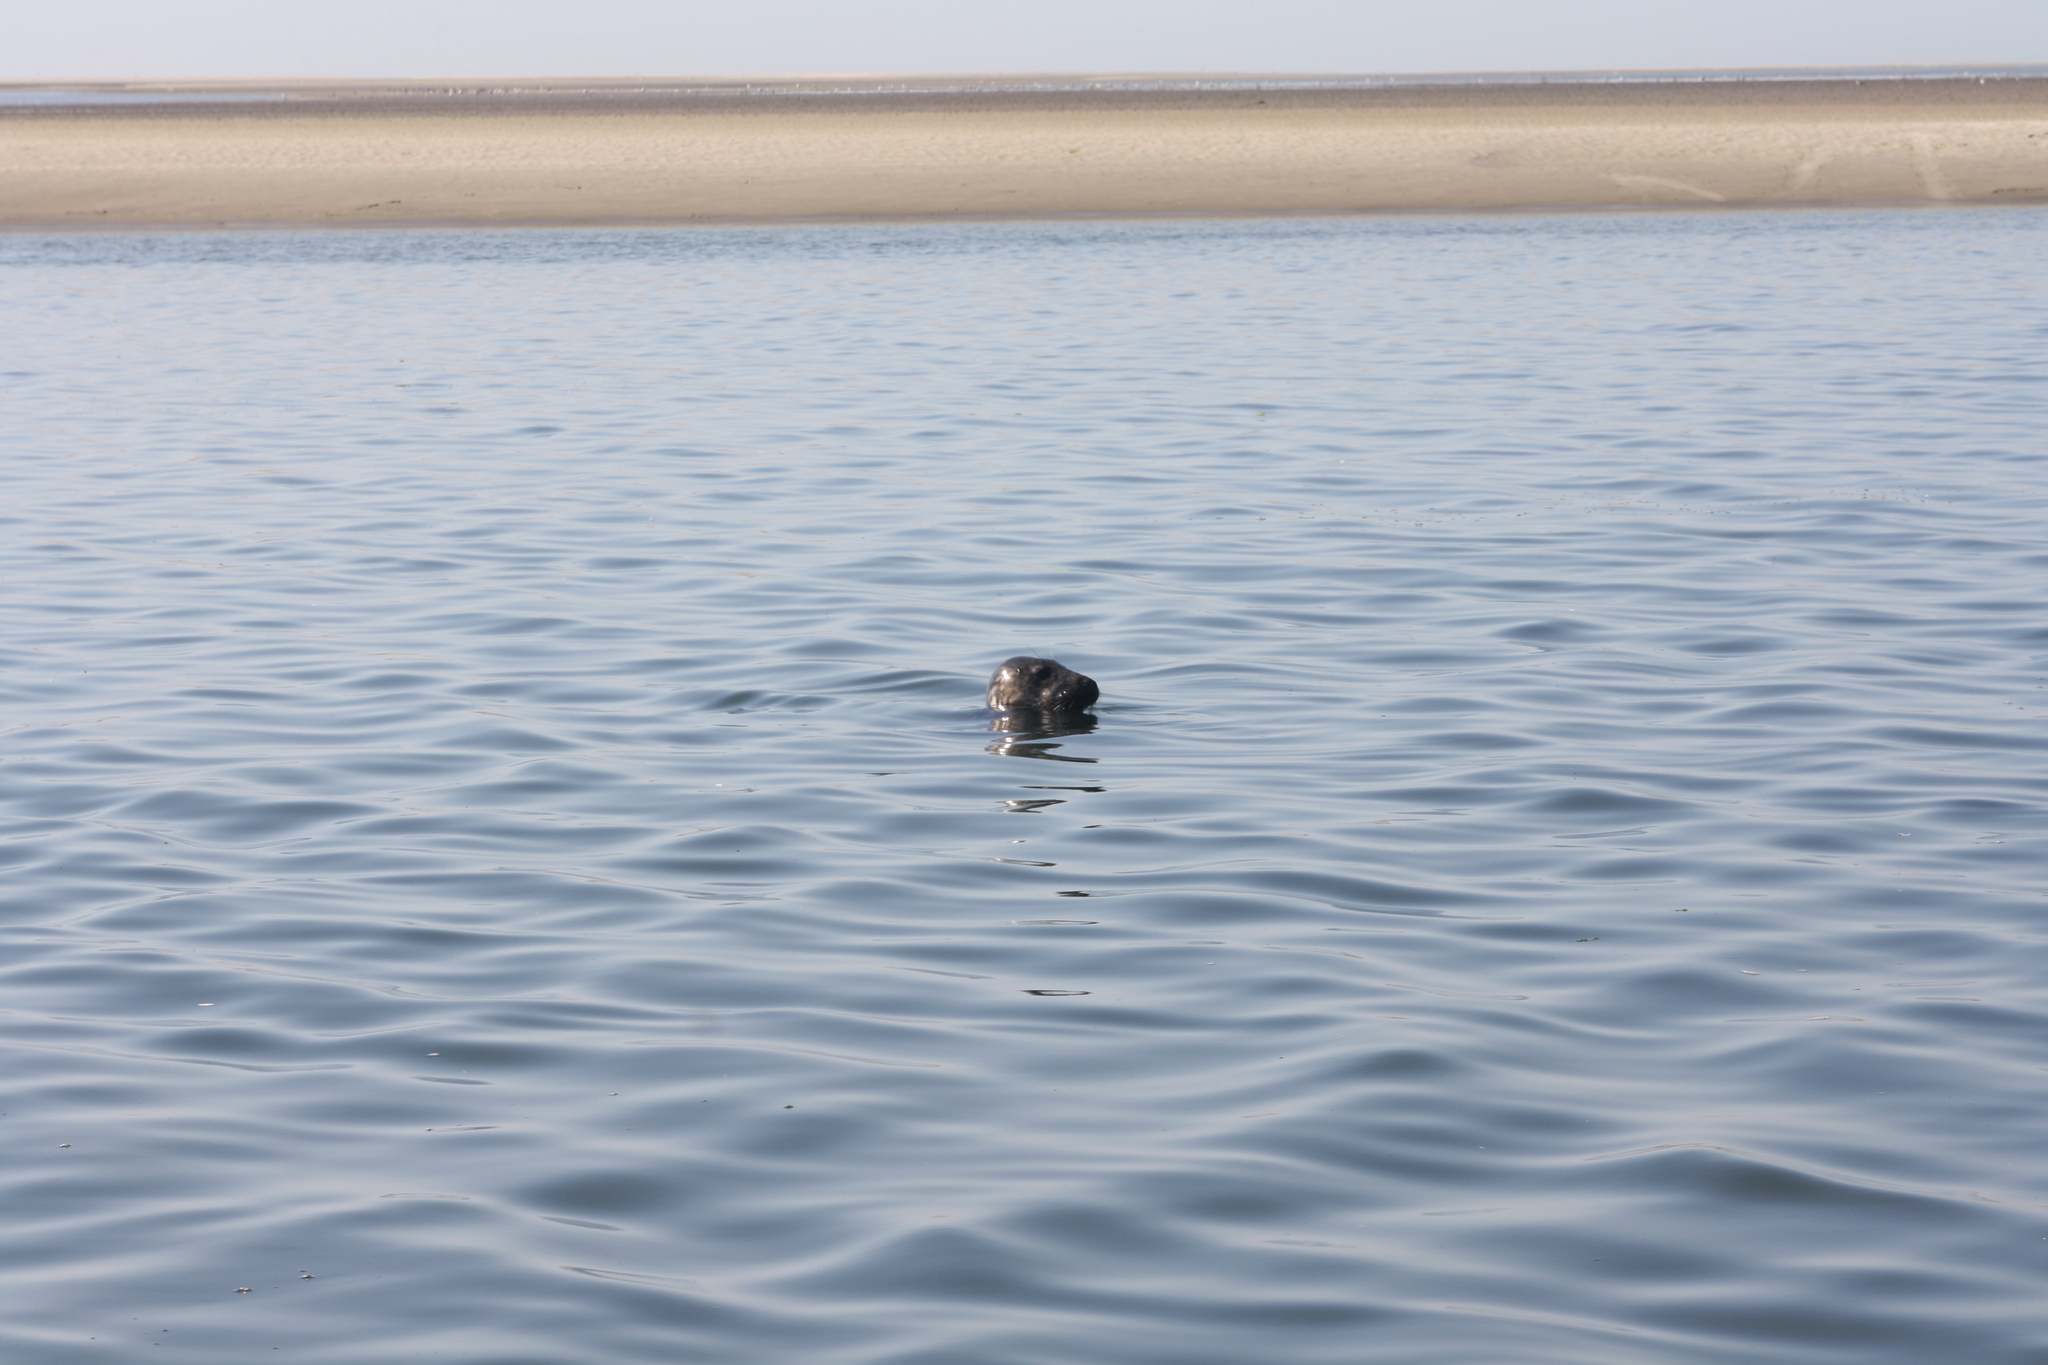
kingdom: Animalia
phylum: Chordata
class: Mammalia
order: Carnivora
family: Phocidae
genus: Halichoerus
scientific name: Halichoerus grypus
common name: Grey seal
